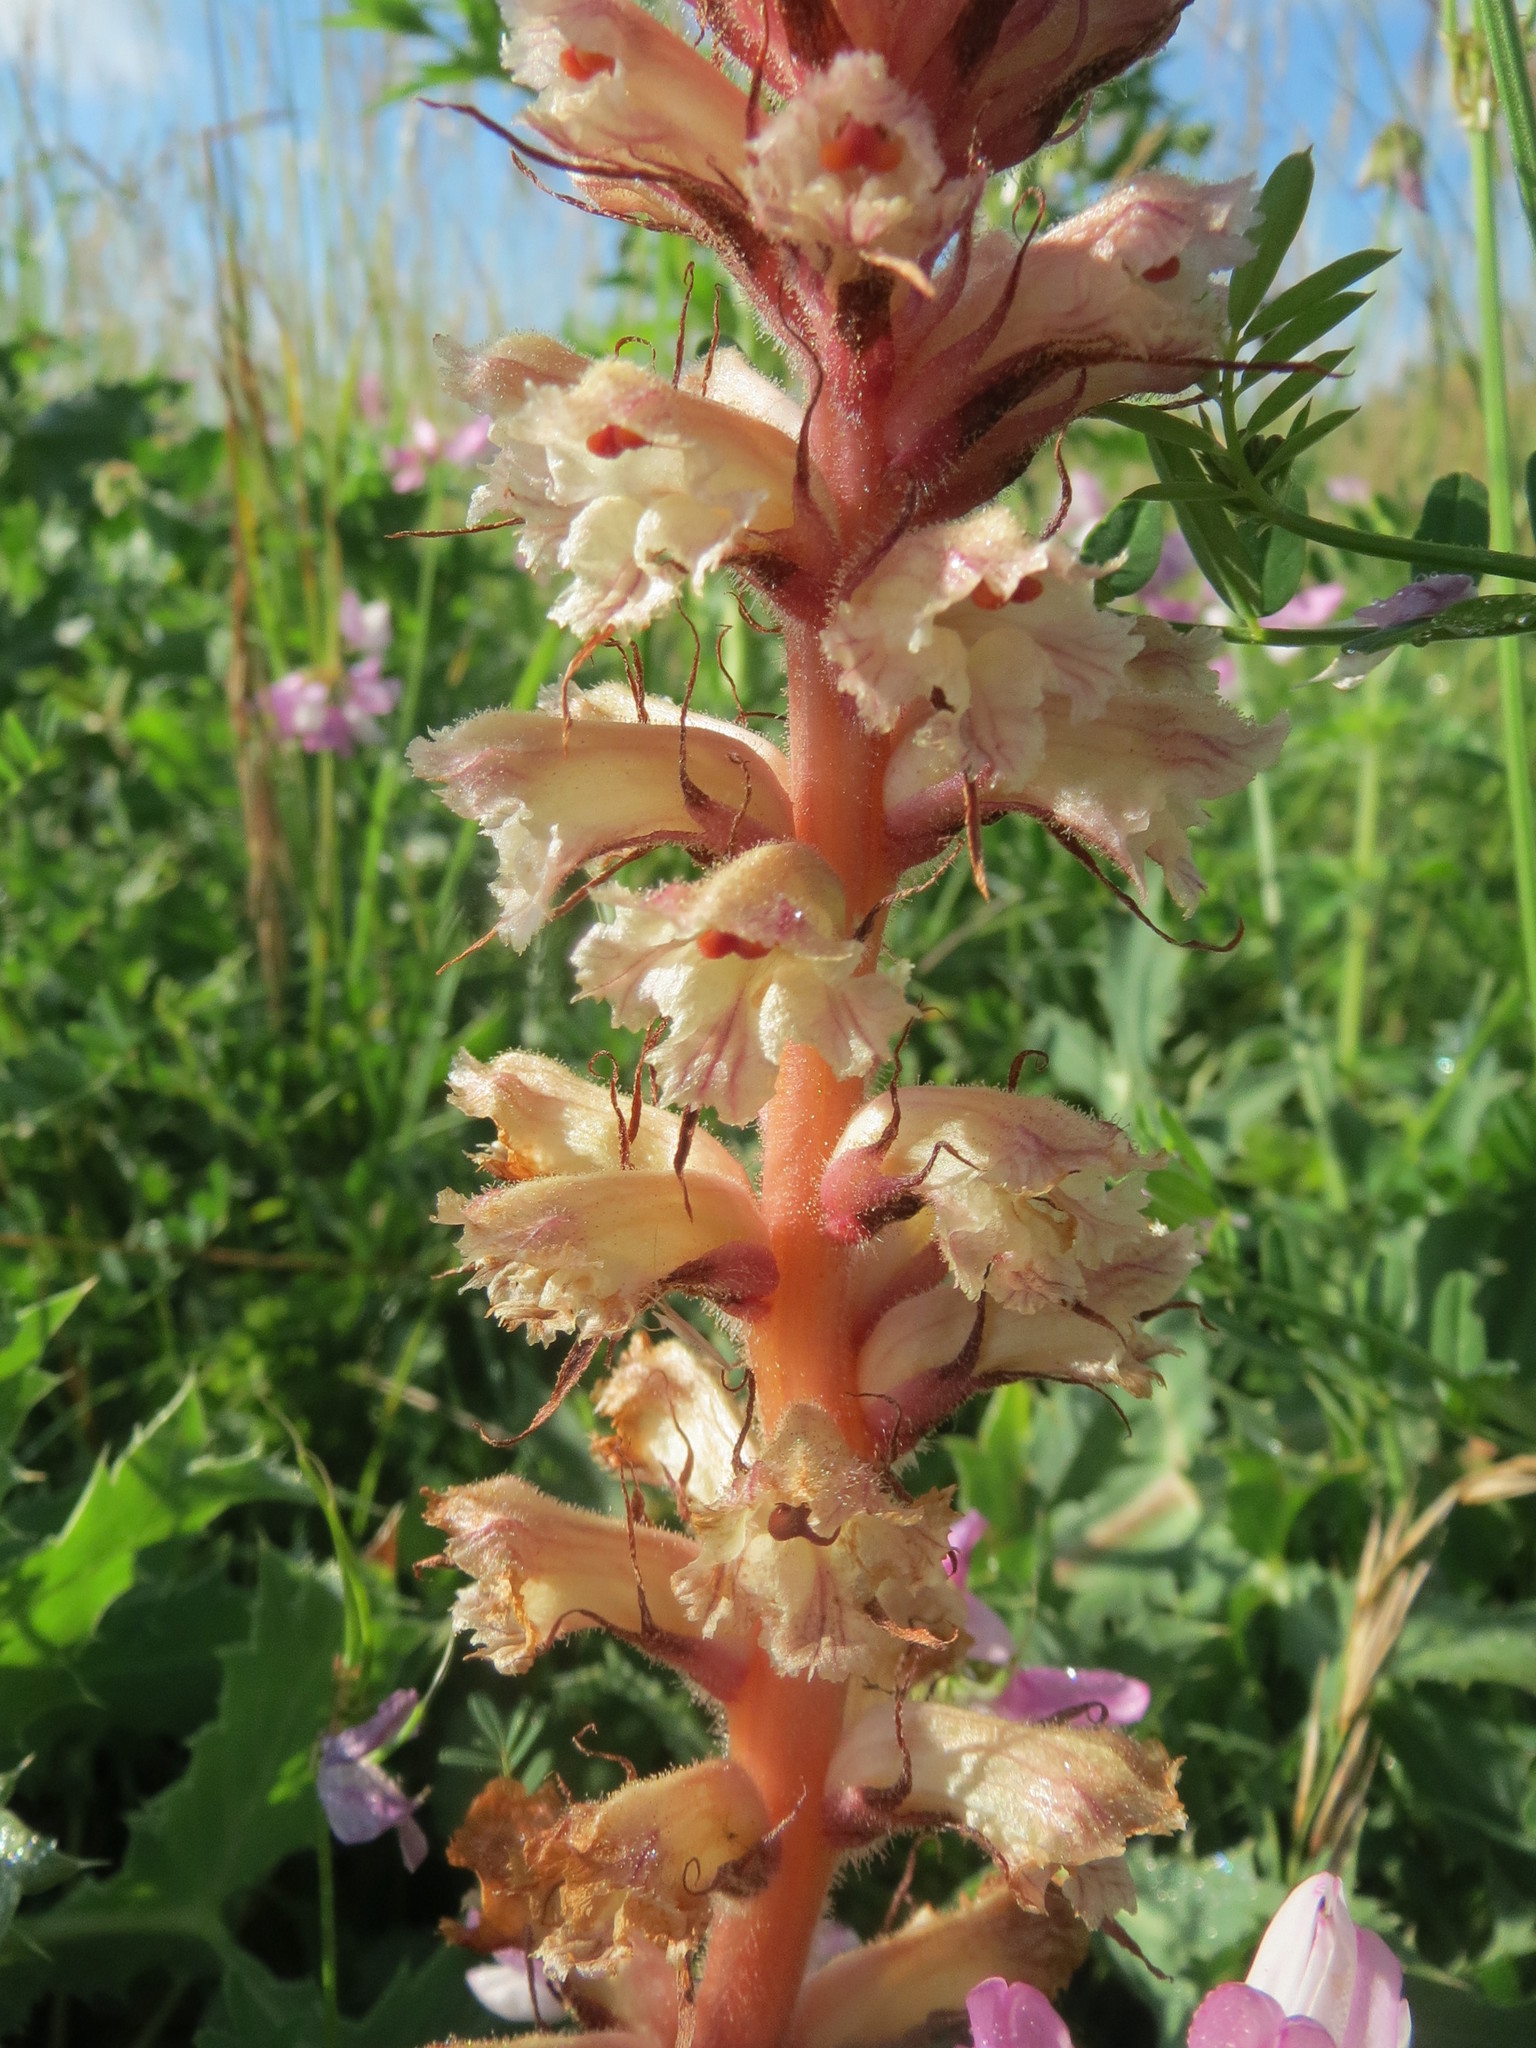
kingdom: Plantae
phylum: Tracheophyta
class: Magnoliopsida
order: Lamiales
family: Orobanchaceae
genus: Orobanche
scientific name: Orobanche amethystea
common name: Amethyst broomrape
